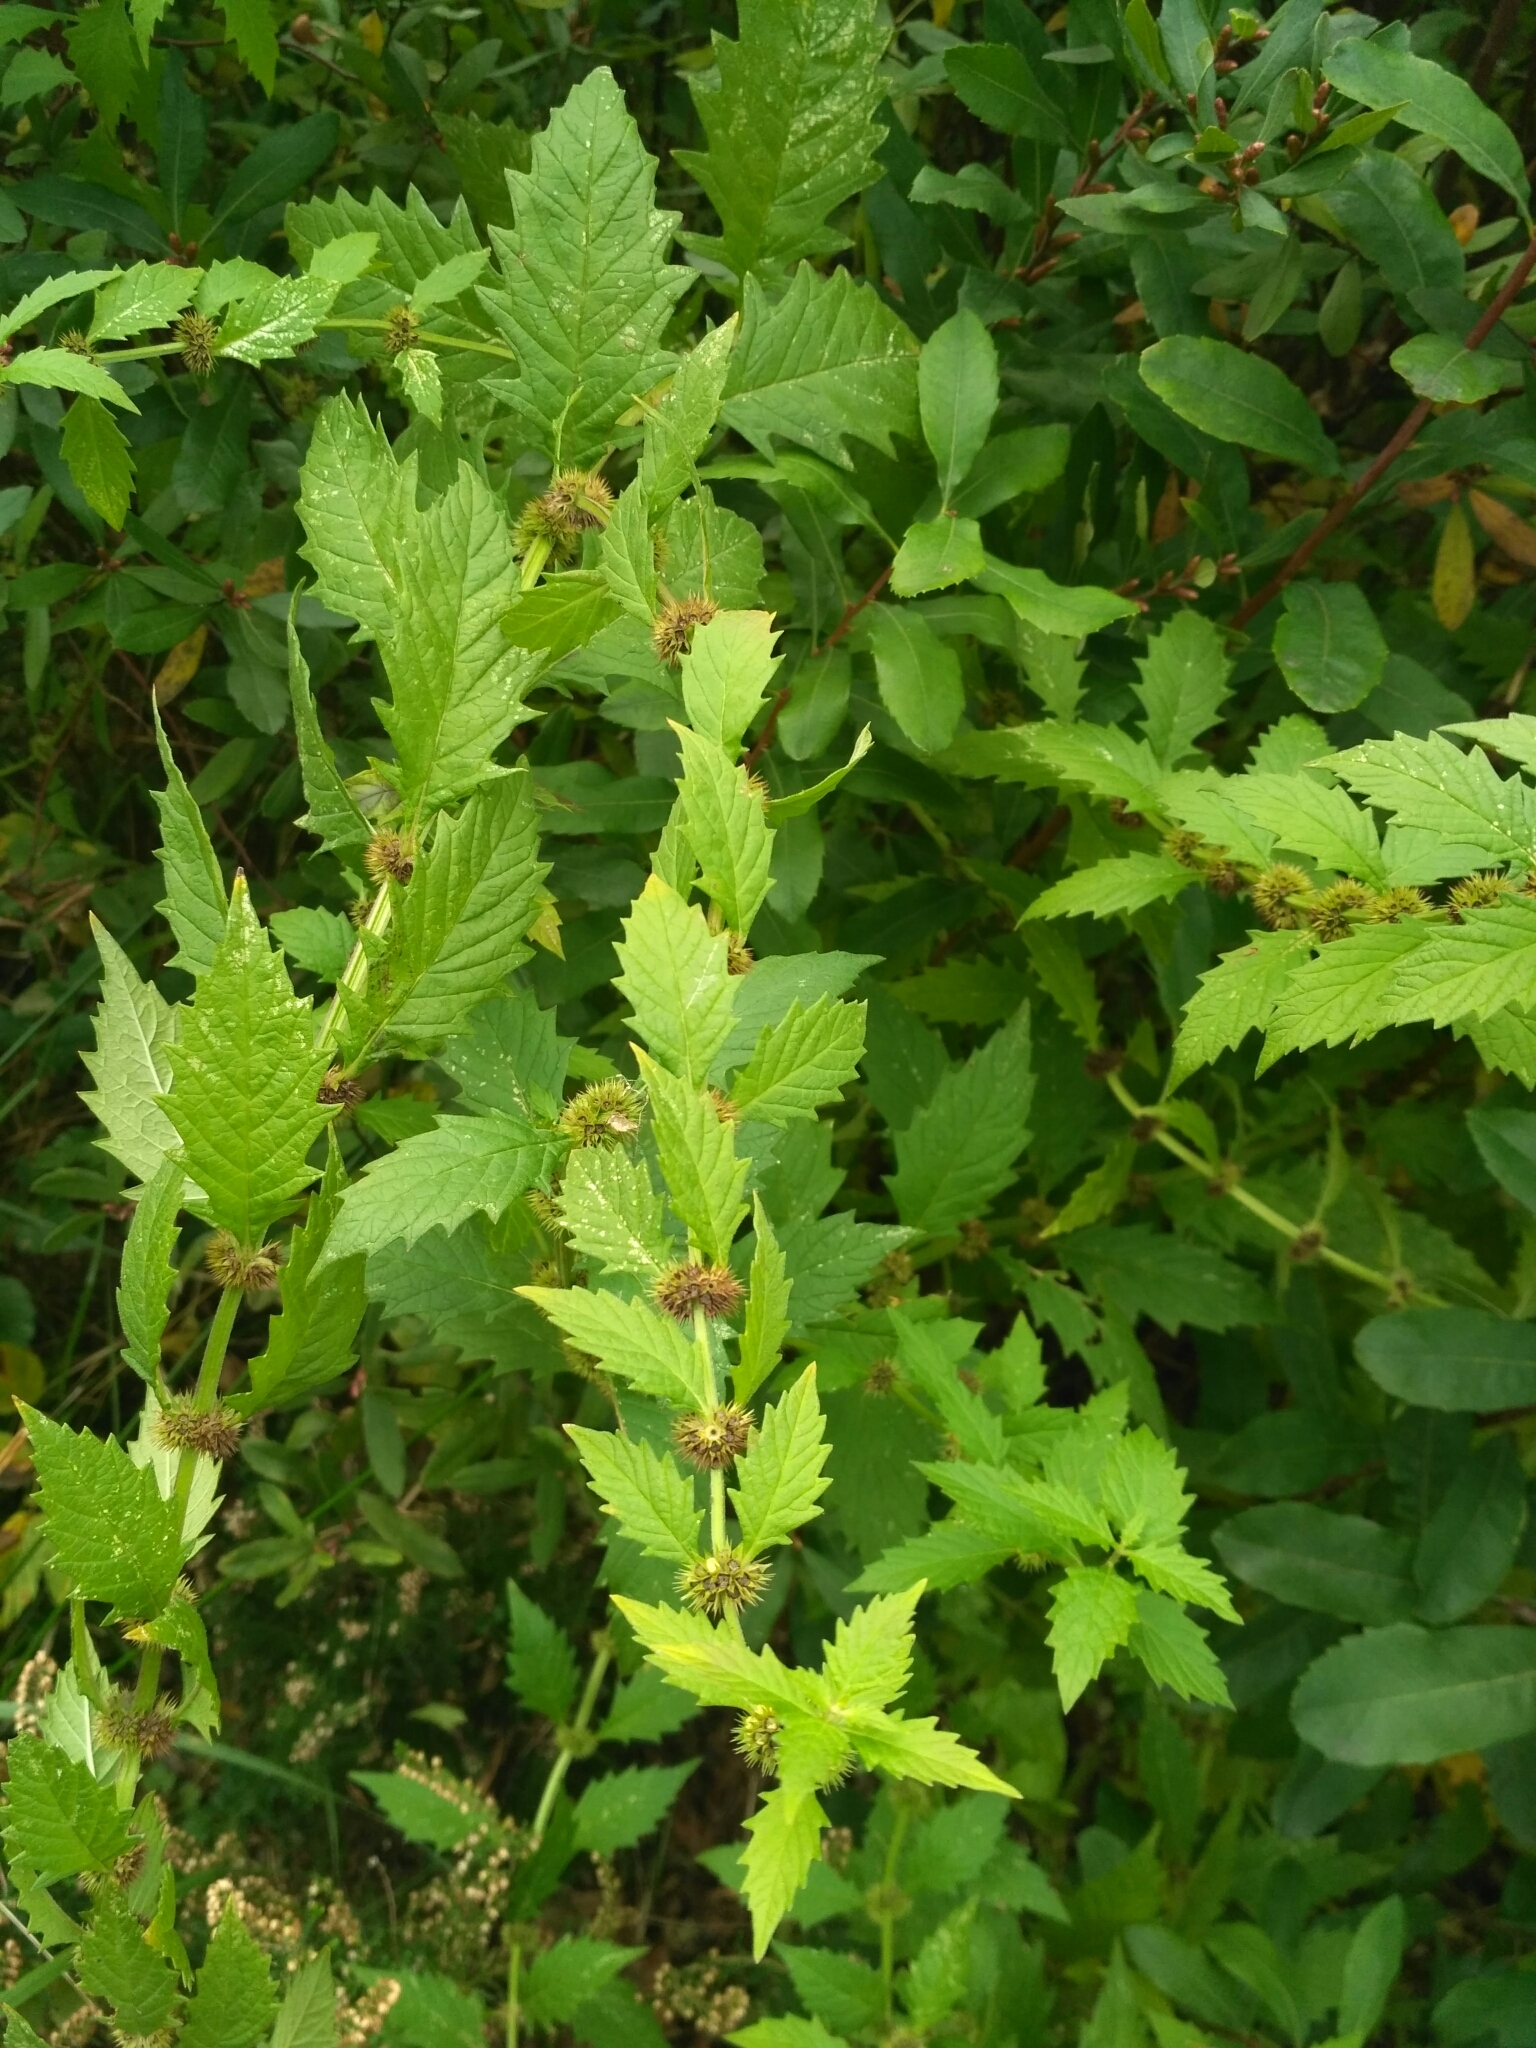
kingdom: Plantae
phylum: Tracheophyta
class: Magnoliopsida
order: Lamiales
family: Lamiaceae
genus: Lycopus
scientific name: Lycopus europaeus
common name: European bugleweed
